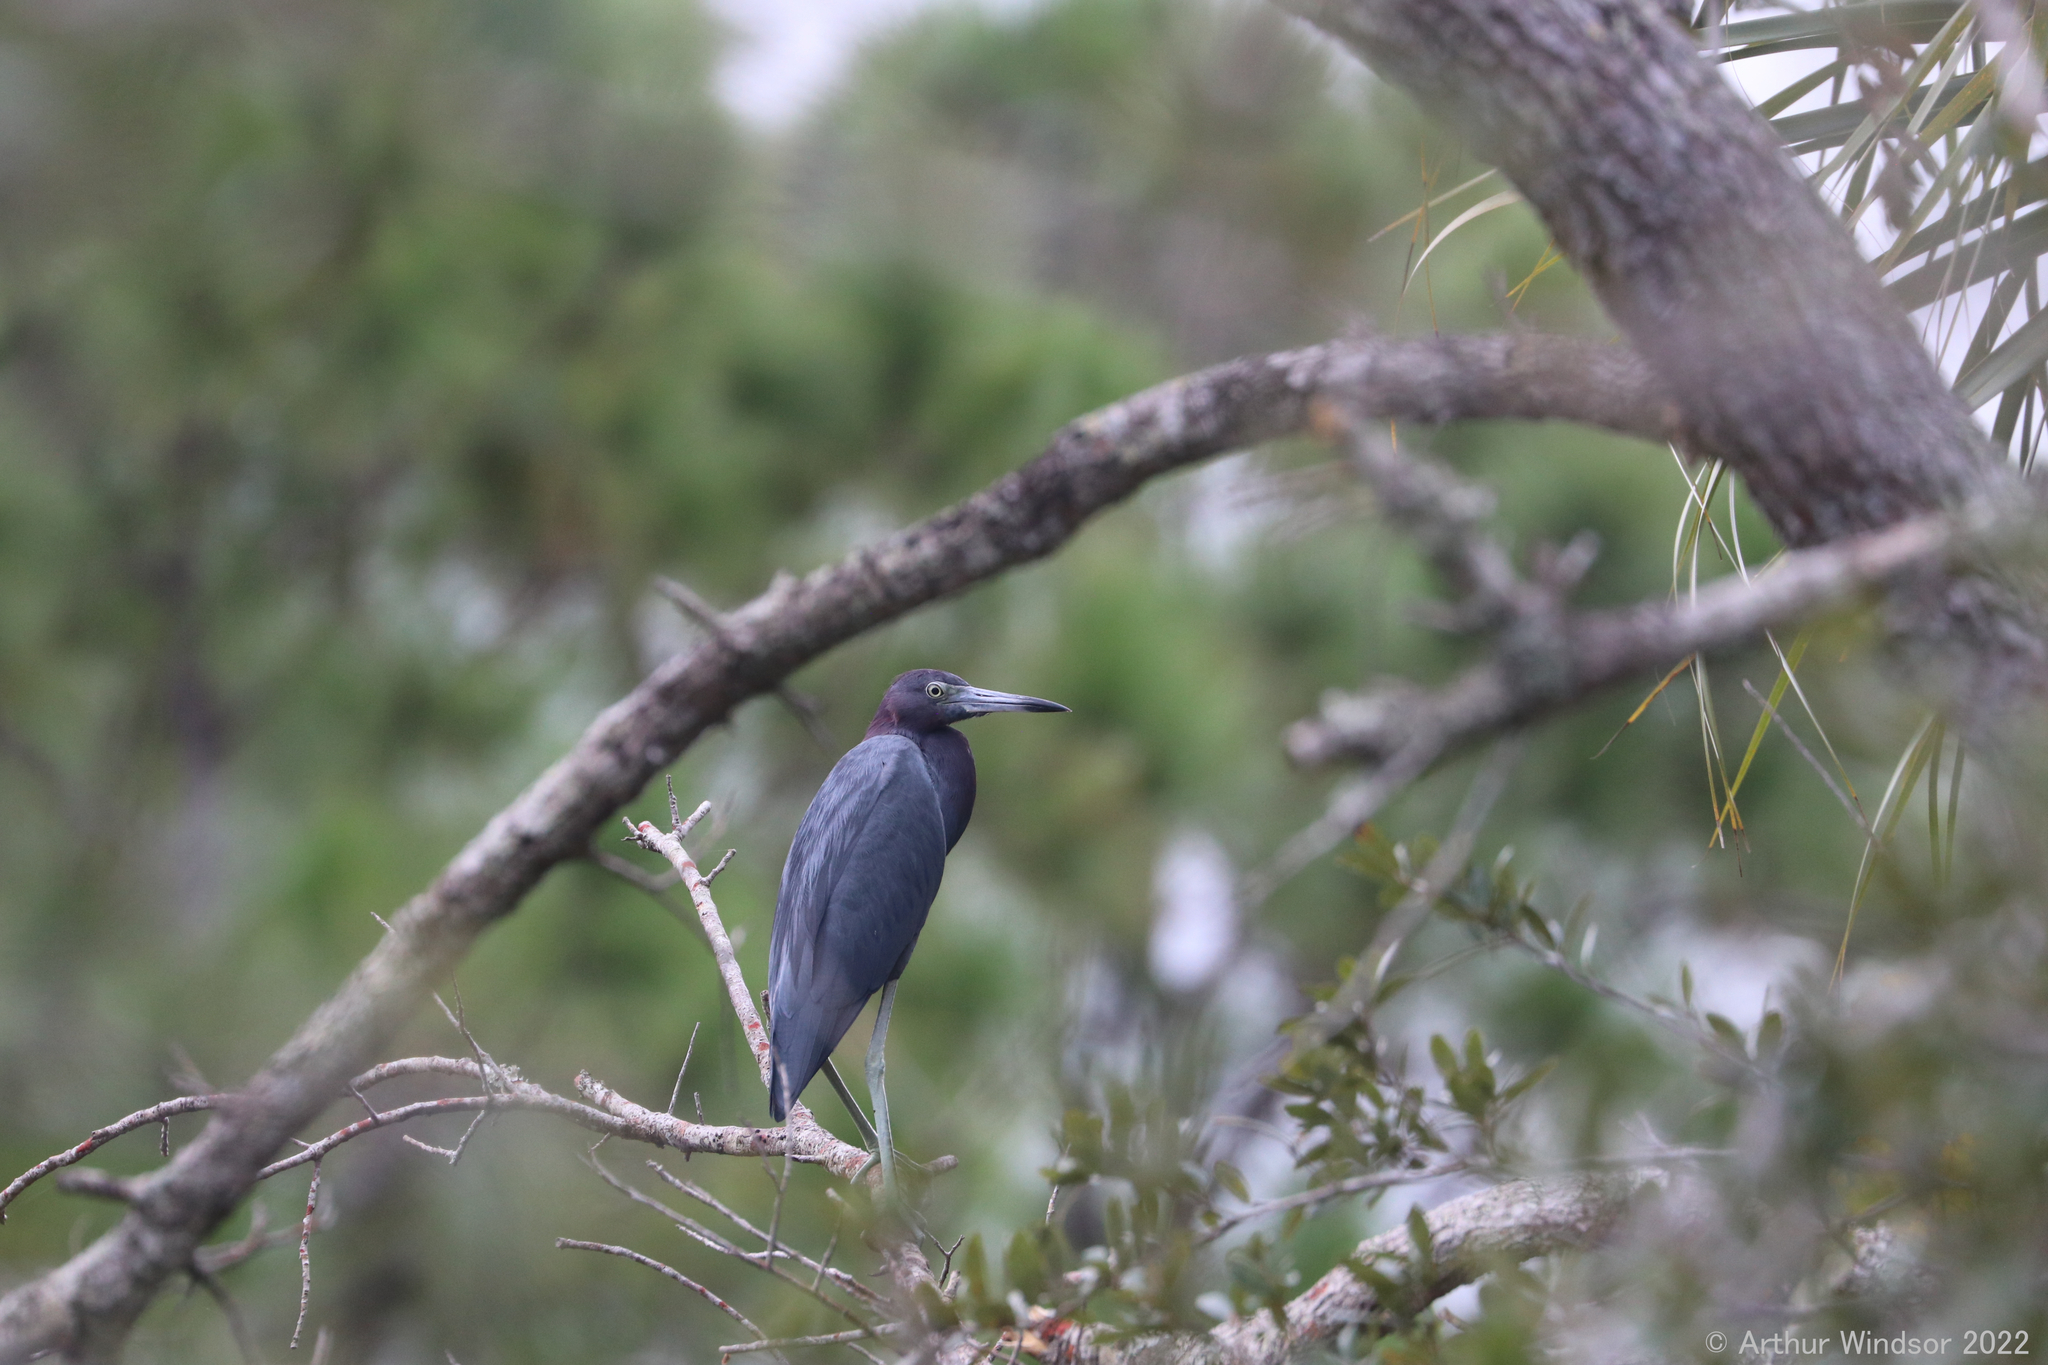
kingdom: Animalia
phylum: Chordata
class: Aves
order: Pelecaniformes
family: Ardeidae
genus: Egretta
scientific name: Egretta caerulea
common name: Little blue heron
